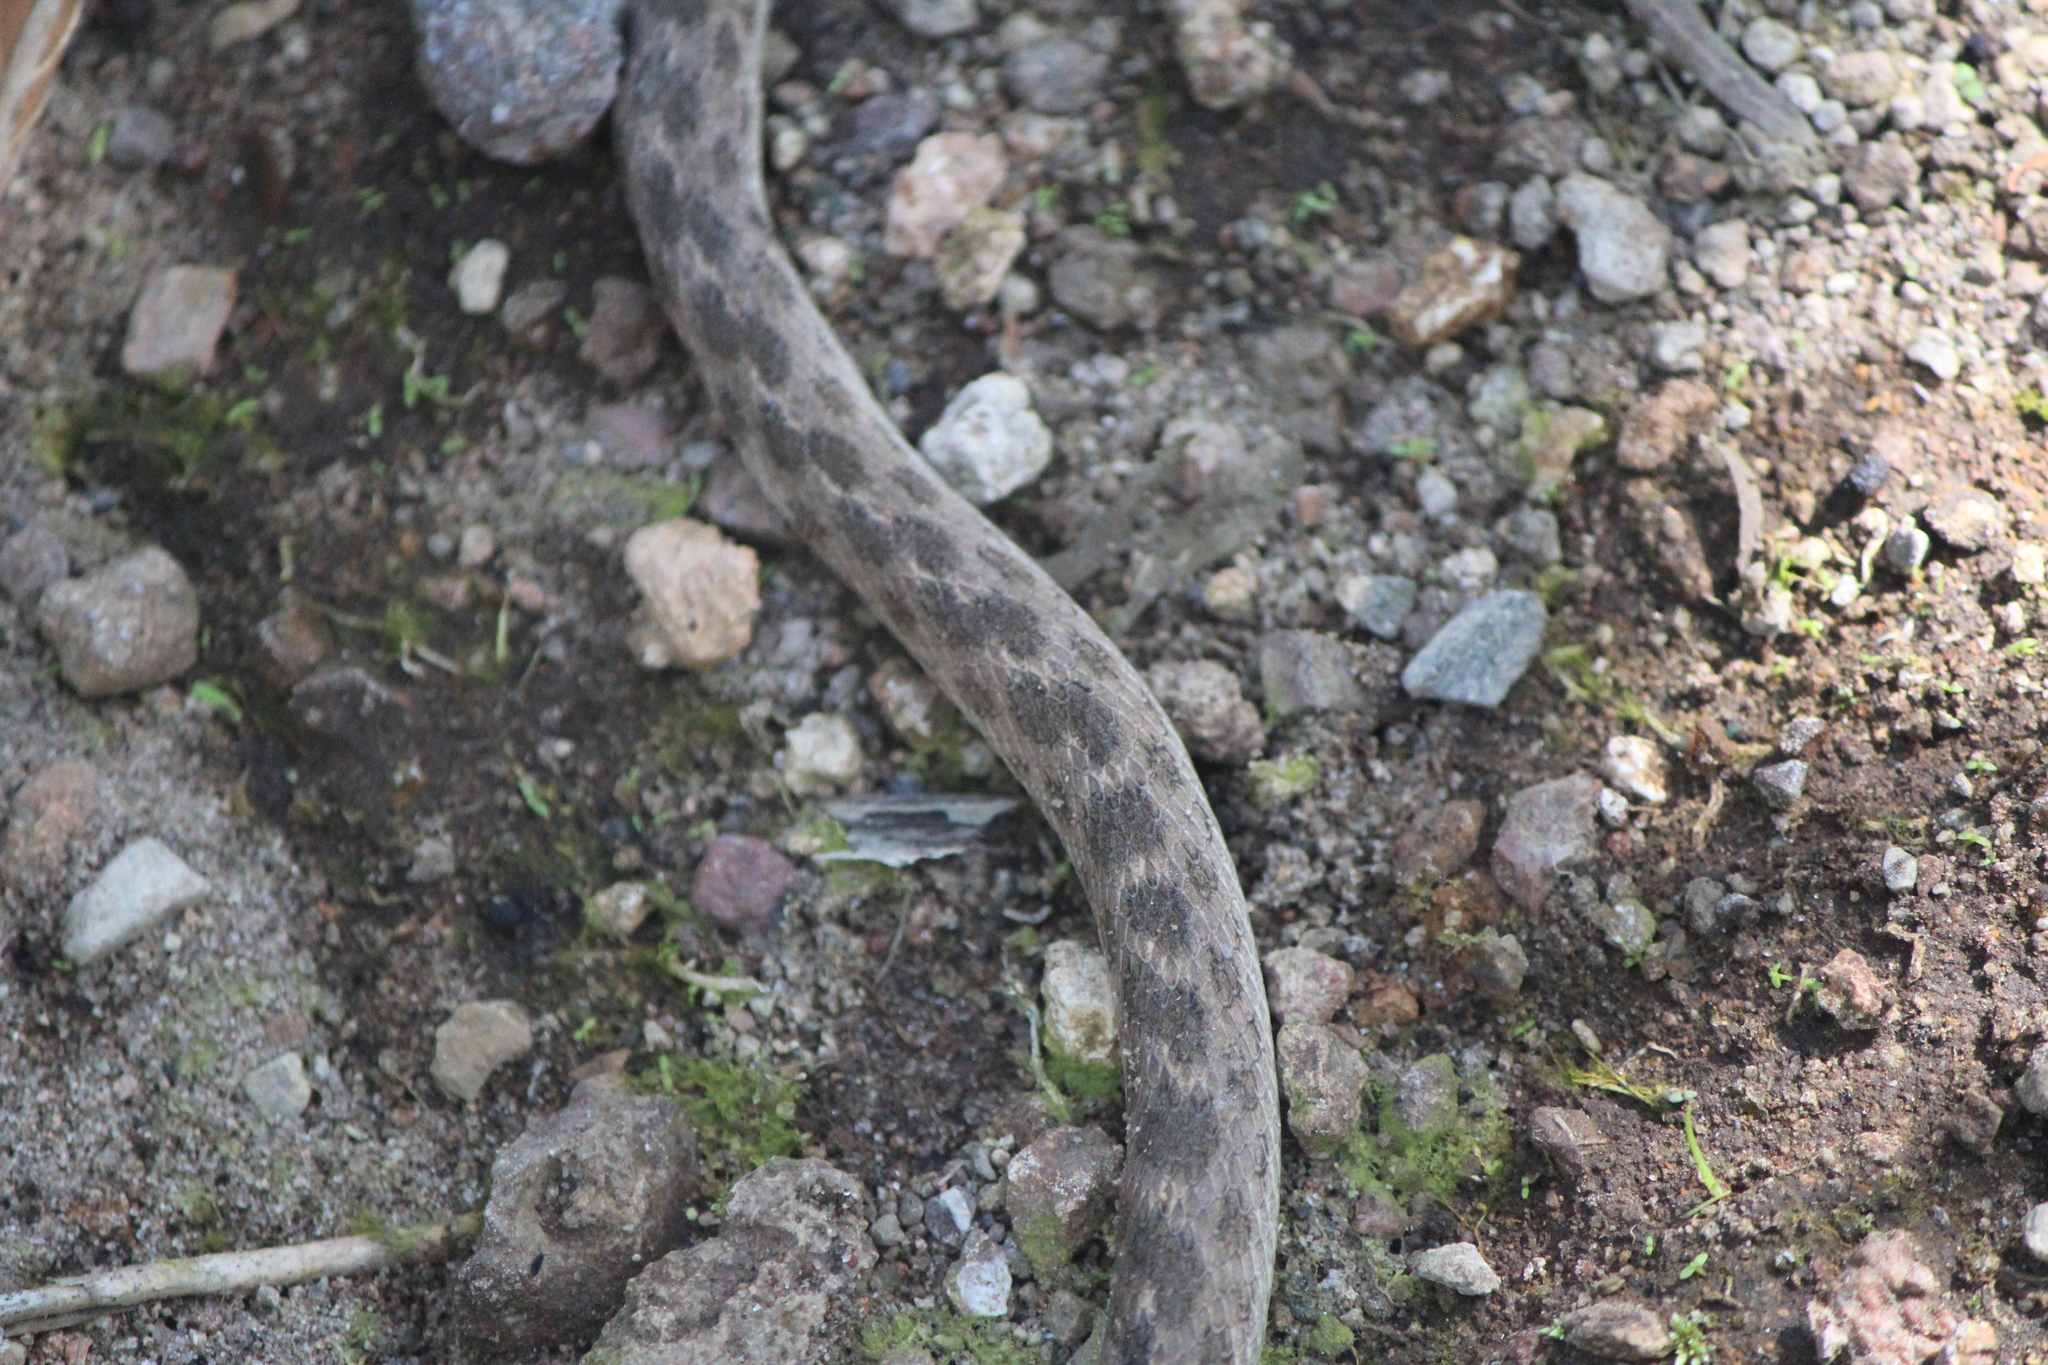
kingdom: Animalia
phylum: Chordata
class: Squamata
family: Colubridae
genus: Hypsiglena
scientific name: Hypsiglena jani
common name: Chihuahuan nightsnake
